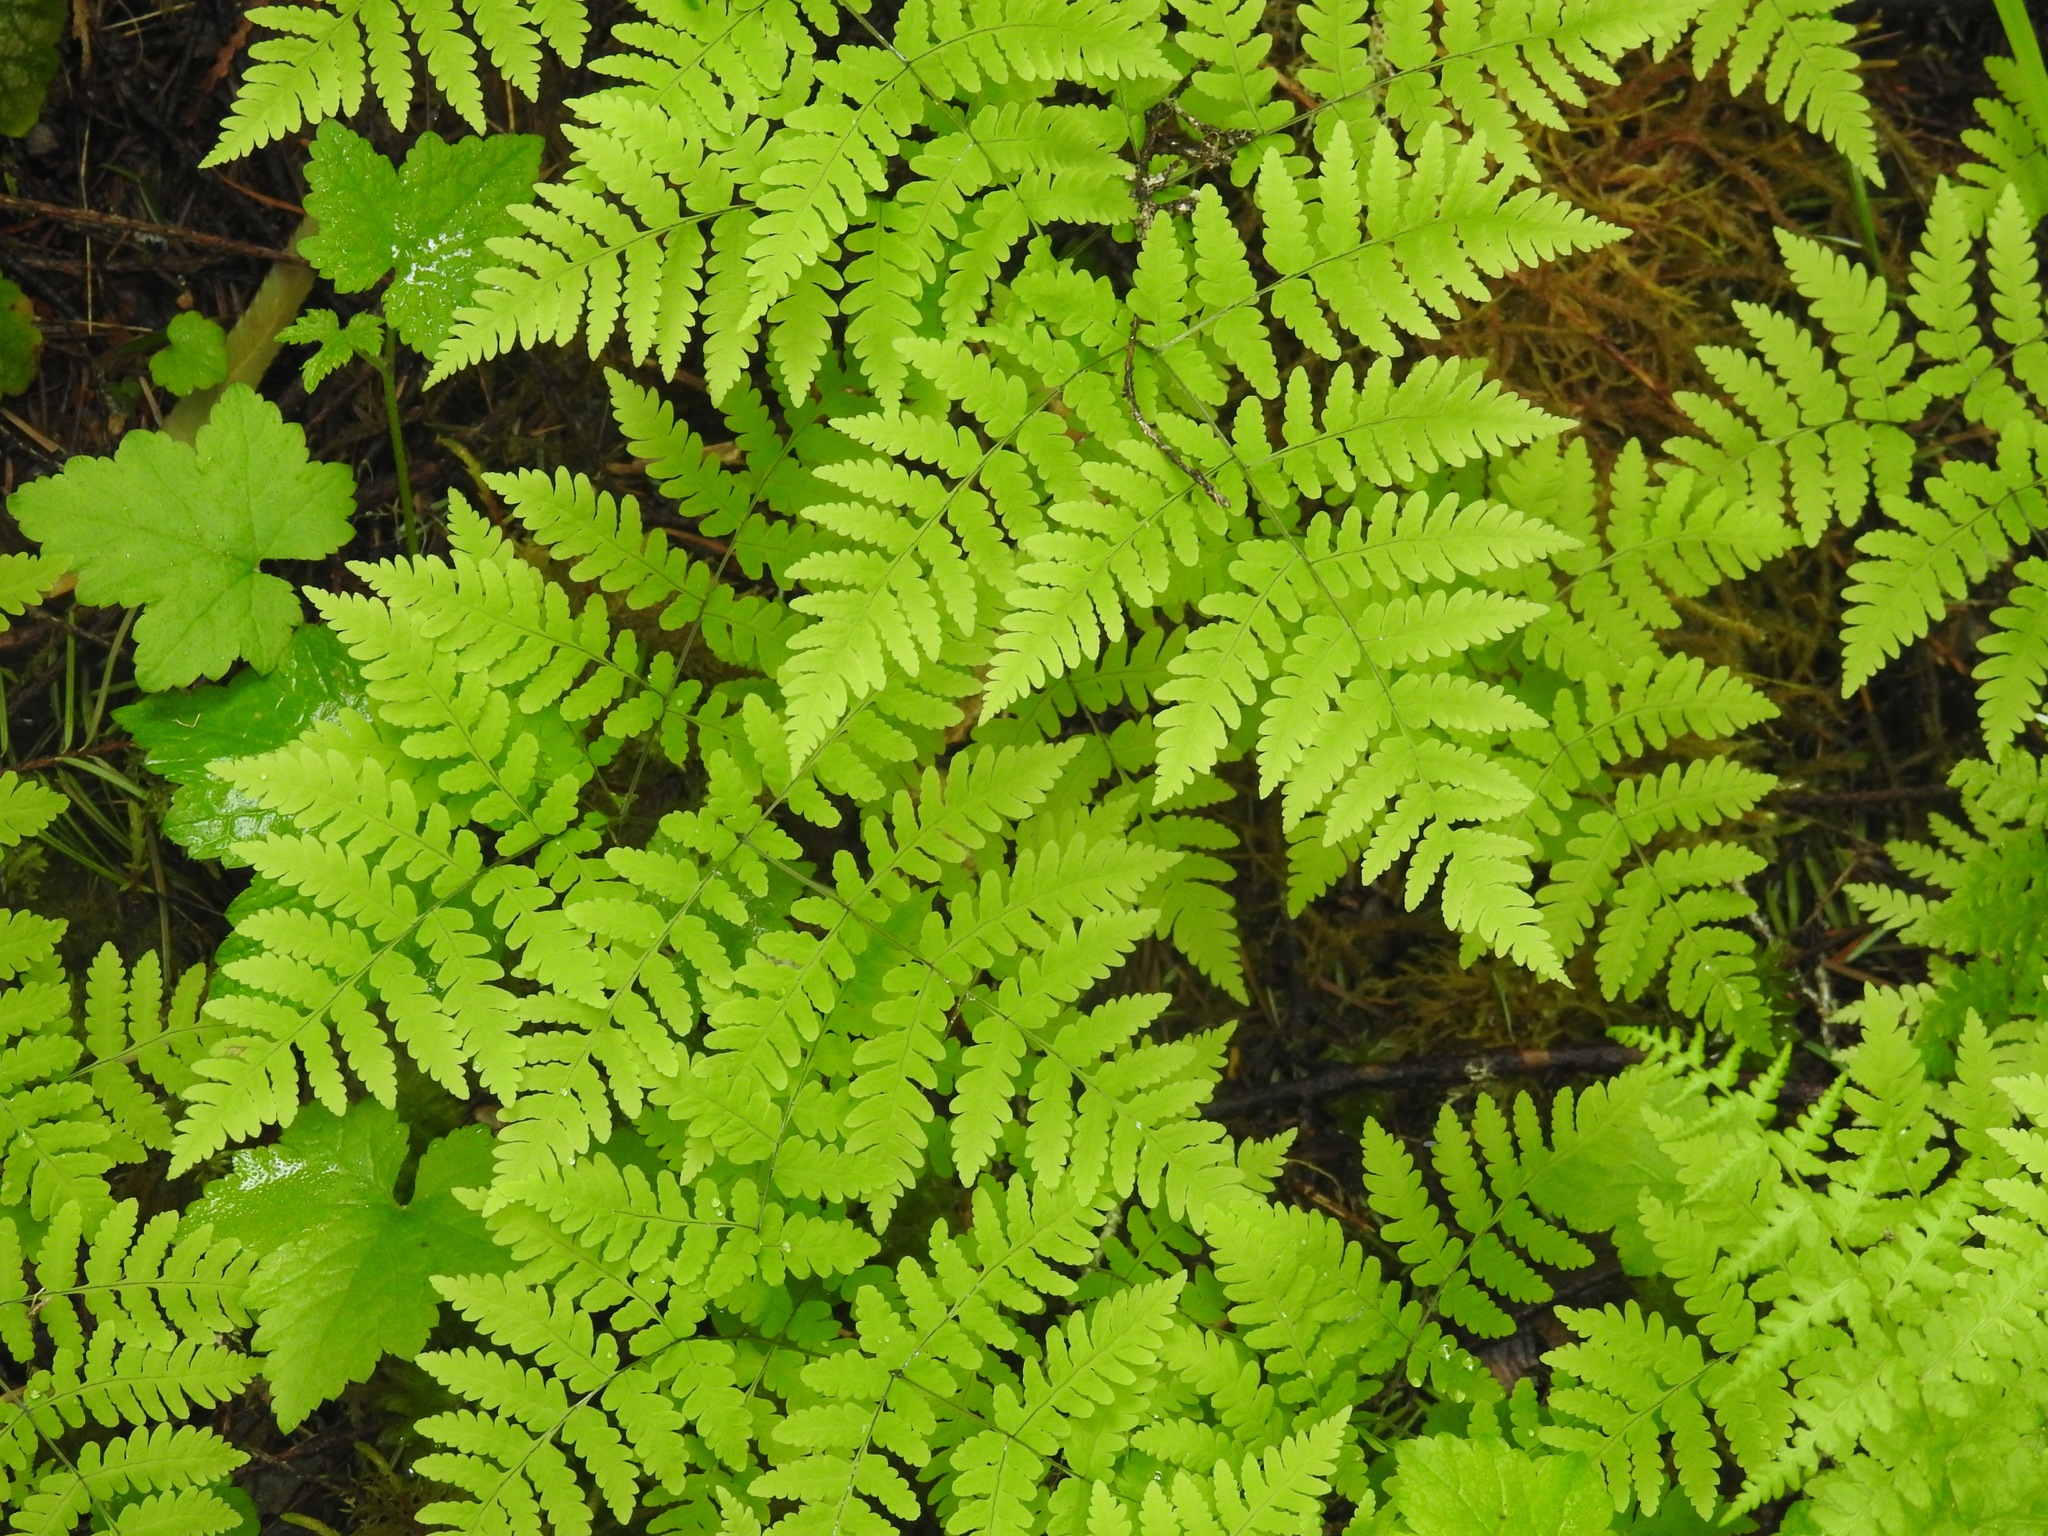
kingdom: Plantae
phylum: Tracheophyta
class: Polypodiopsida
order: Polypodiales
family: Cystopteridaceae
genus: Gymnocarpium
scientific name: Gymnocarpium disjunctum
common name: Western oak fern
